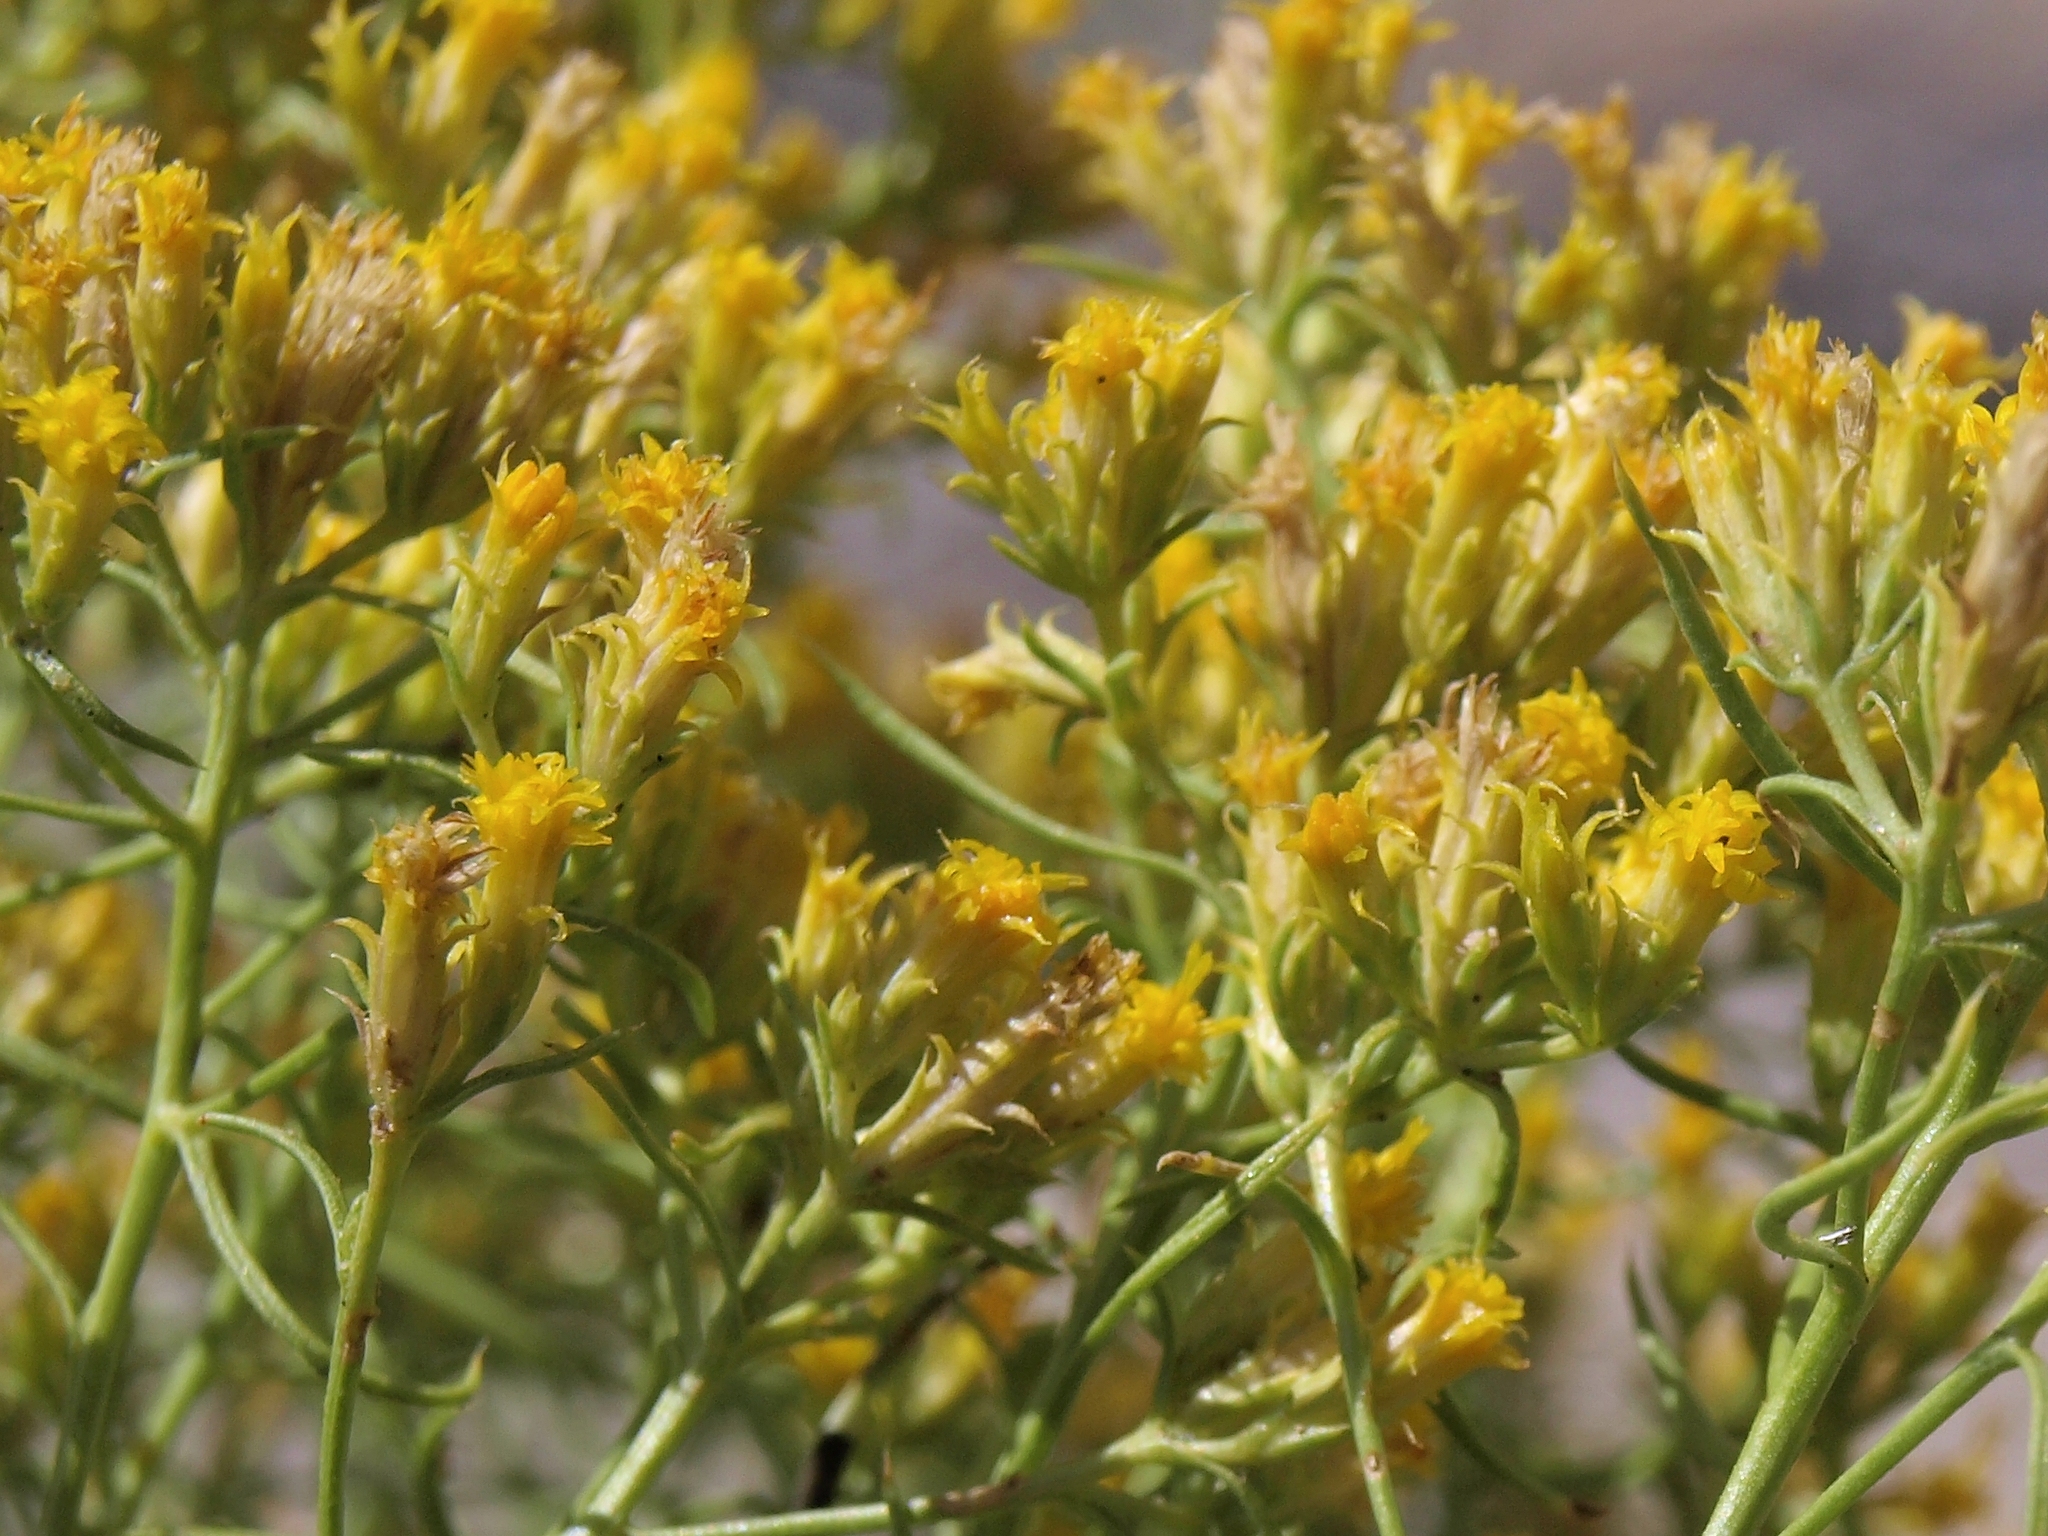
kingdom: Plantae
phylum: Tracheophyta
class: Magnoliopsida
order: Asterales
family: Asteraceae
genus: Chrysothamnus
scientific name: Chrysothamnus greenei
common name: Greene's rabbitbrush
